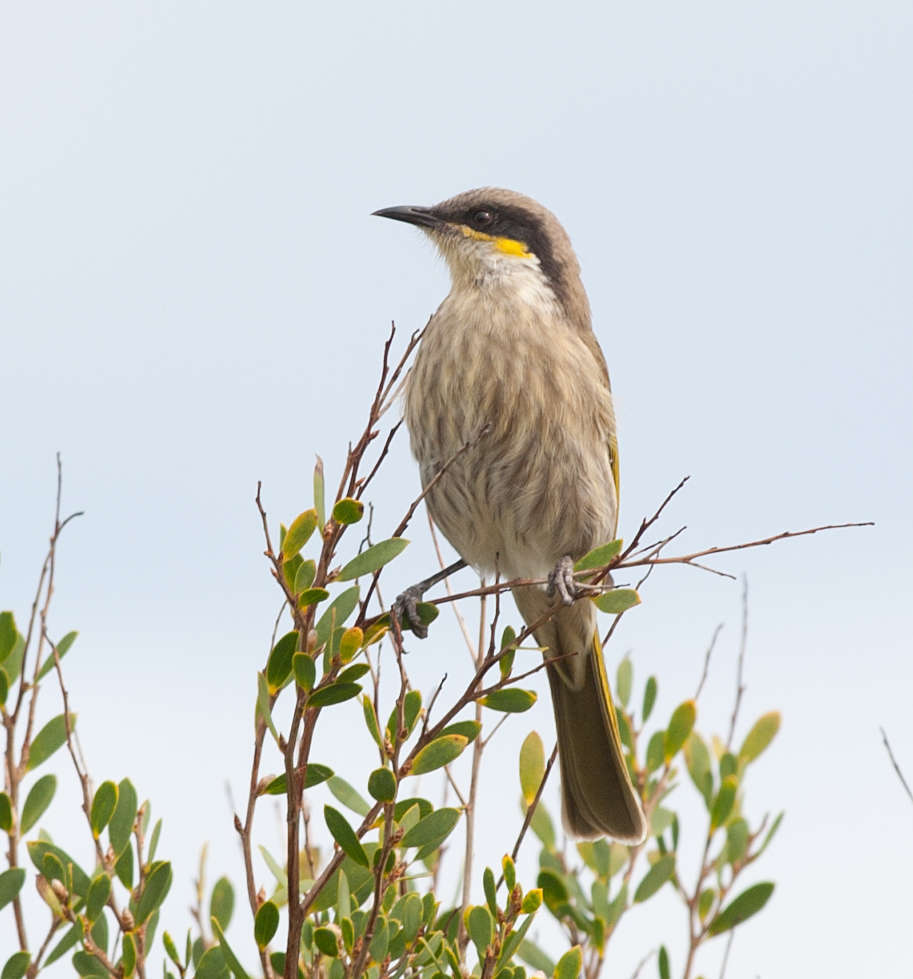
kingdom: Animalia
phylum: Chordata
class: Aves
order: Passeriformes
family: Meliphagidae
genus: Gavicalis
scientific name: Gavicalis virescens
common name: Singing honeyeater
